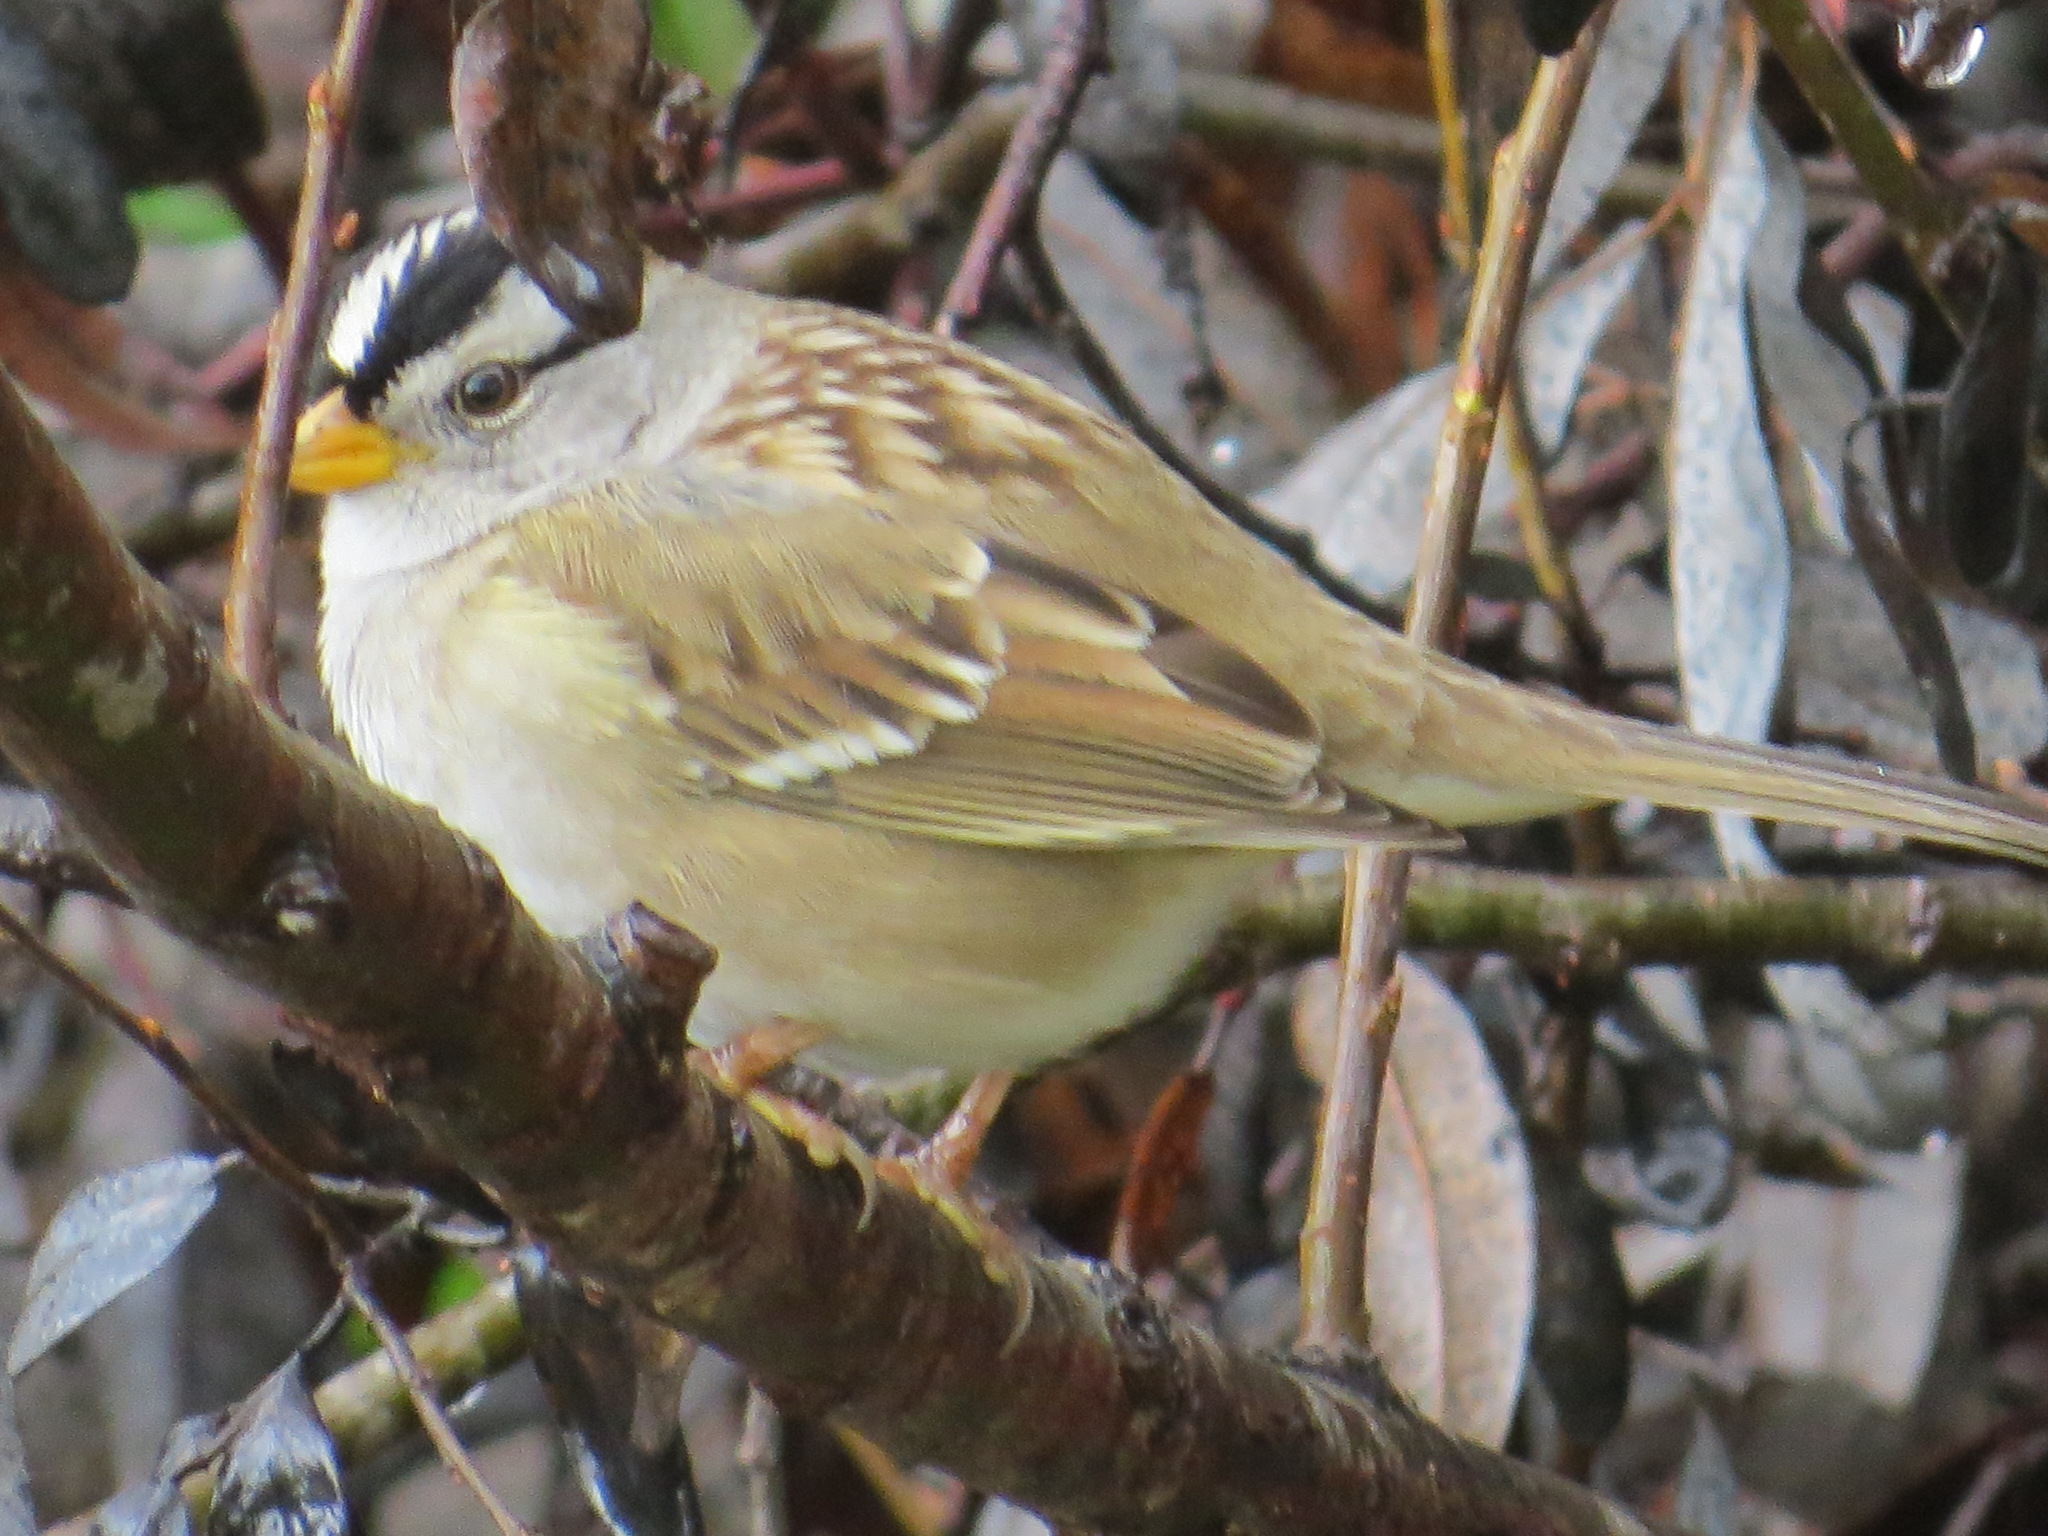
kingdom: Animalia
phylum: Chordata
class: Aves
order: Passeriformes
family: Passerellidae
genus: Zonotrichia
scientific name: Zonotrichia leucophrys
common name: White-crowned sparrow
